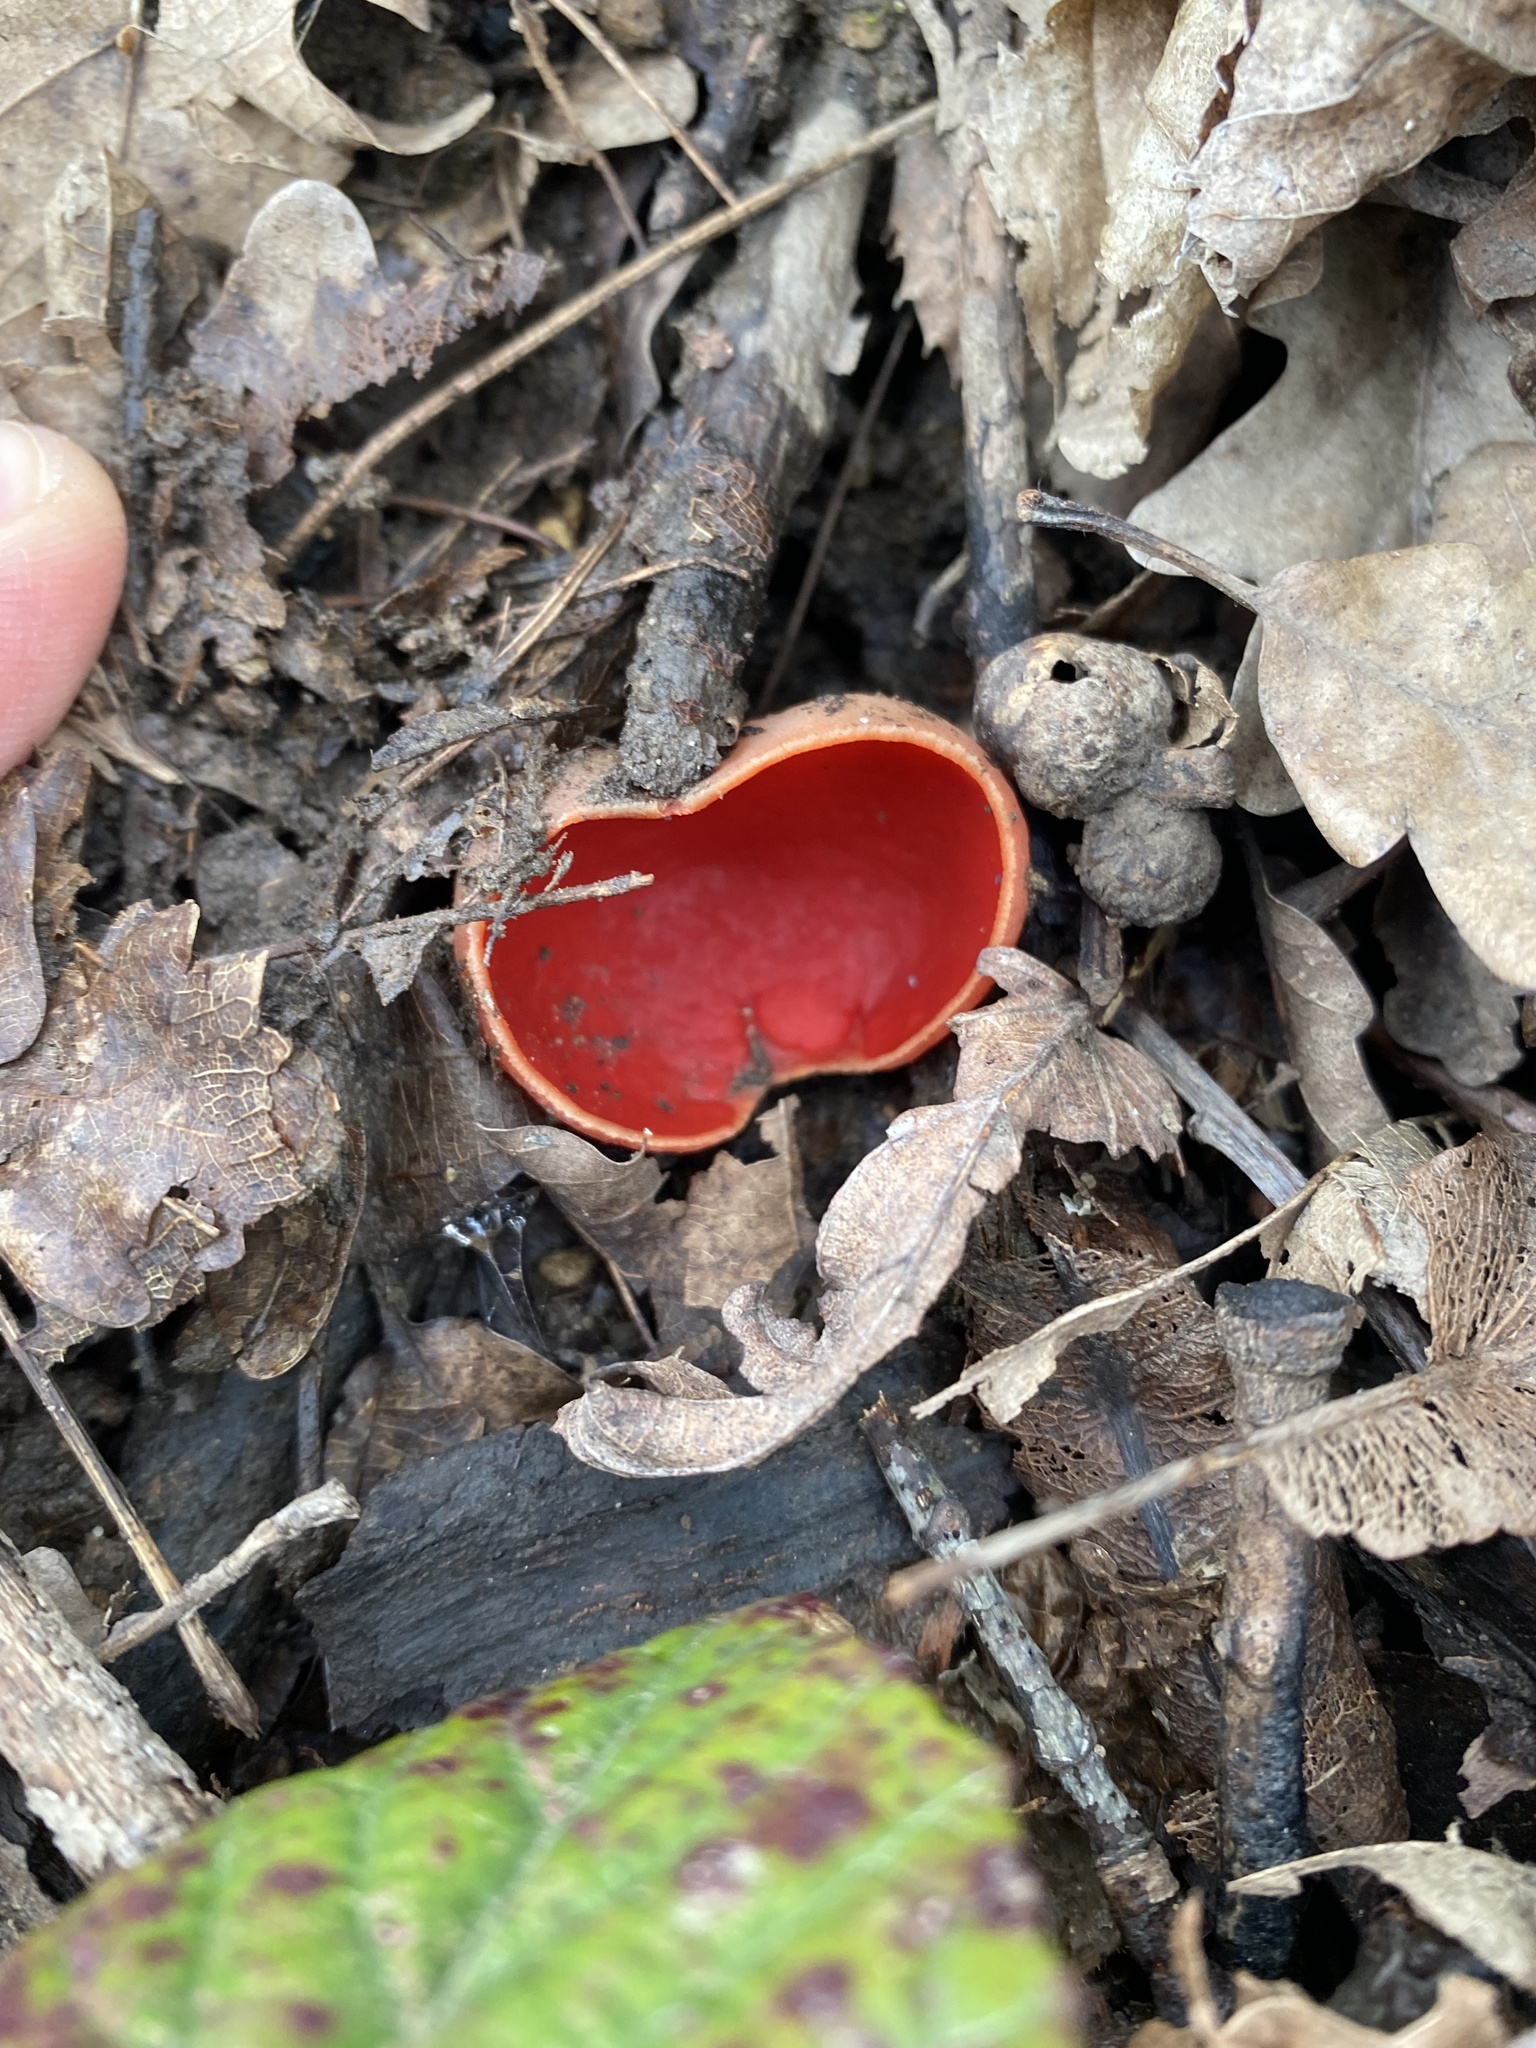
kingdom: Fungi
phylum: Ascomycota
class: Pezizomycetes
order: Pezizales
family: Sarcoscyphaceae
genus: Sarcoscypha
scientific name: Sarcoscypha
